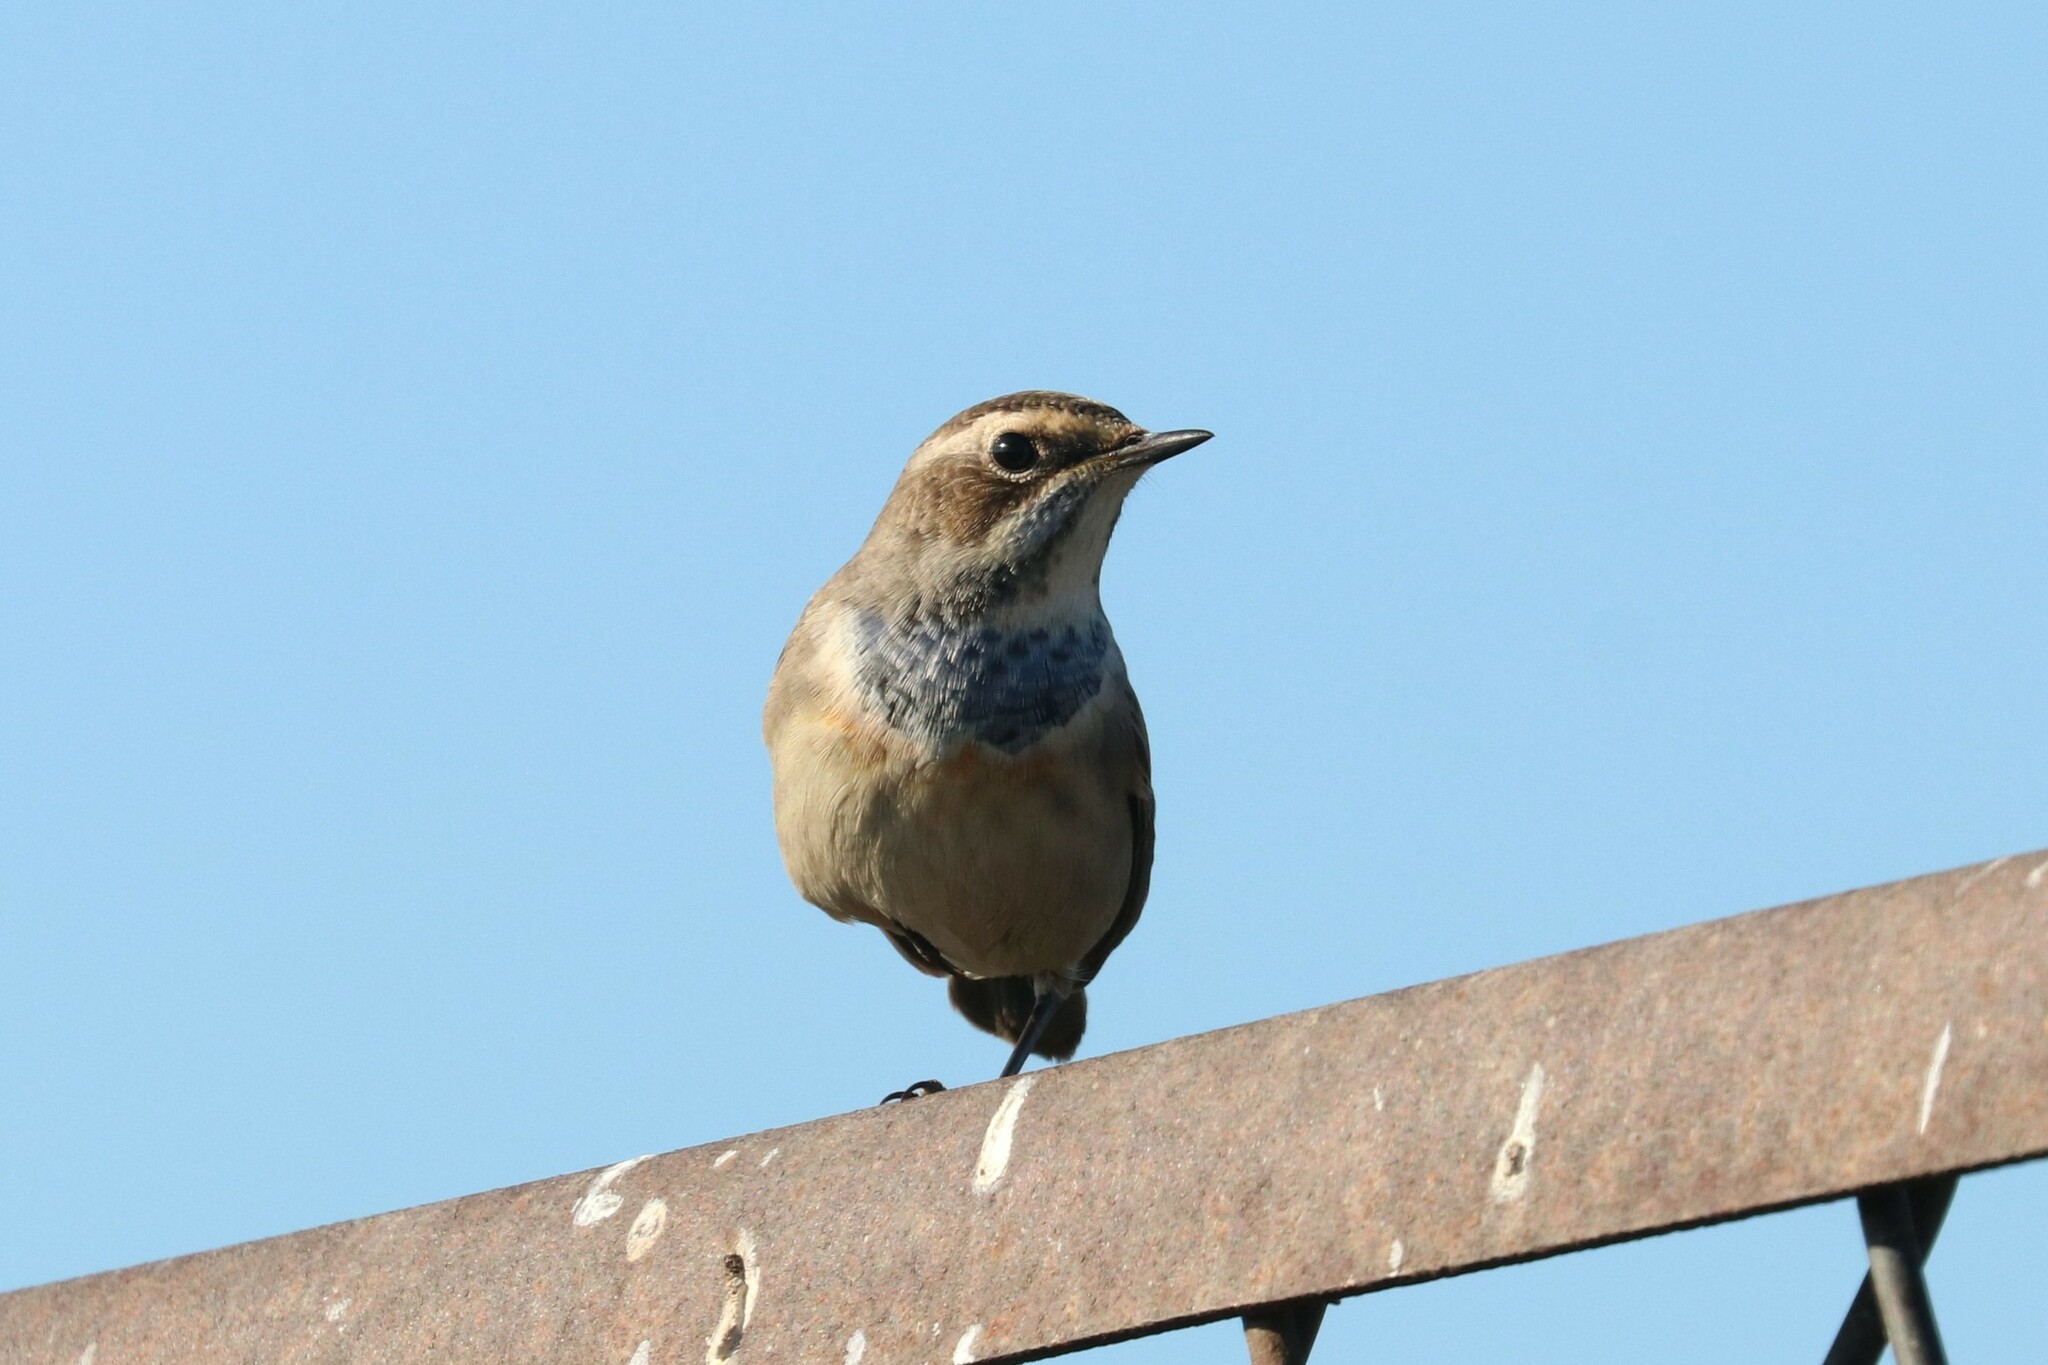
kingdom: Animalia
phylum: Chordata
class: Aves
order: Passeriformes
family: Muscicapidae
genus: Luscinia
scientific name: Luscinia svecica
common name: Bluethroat
